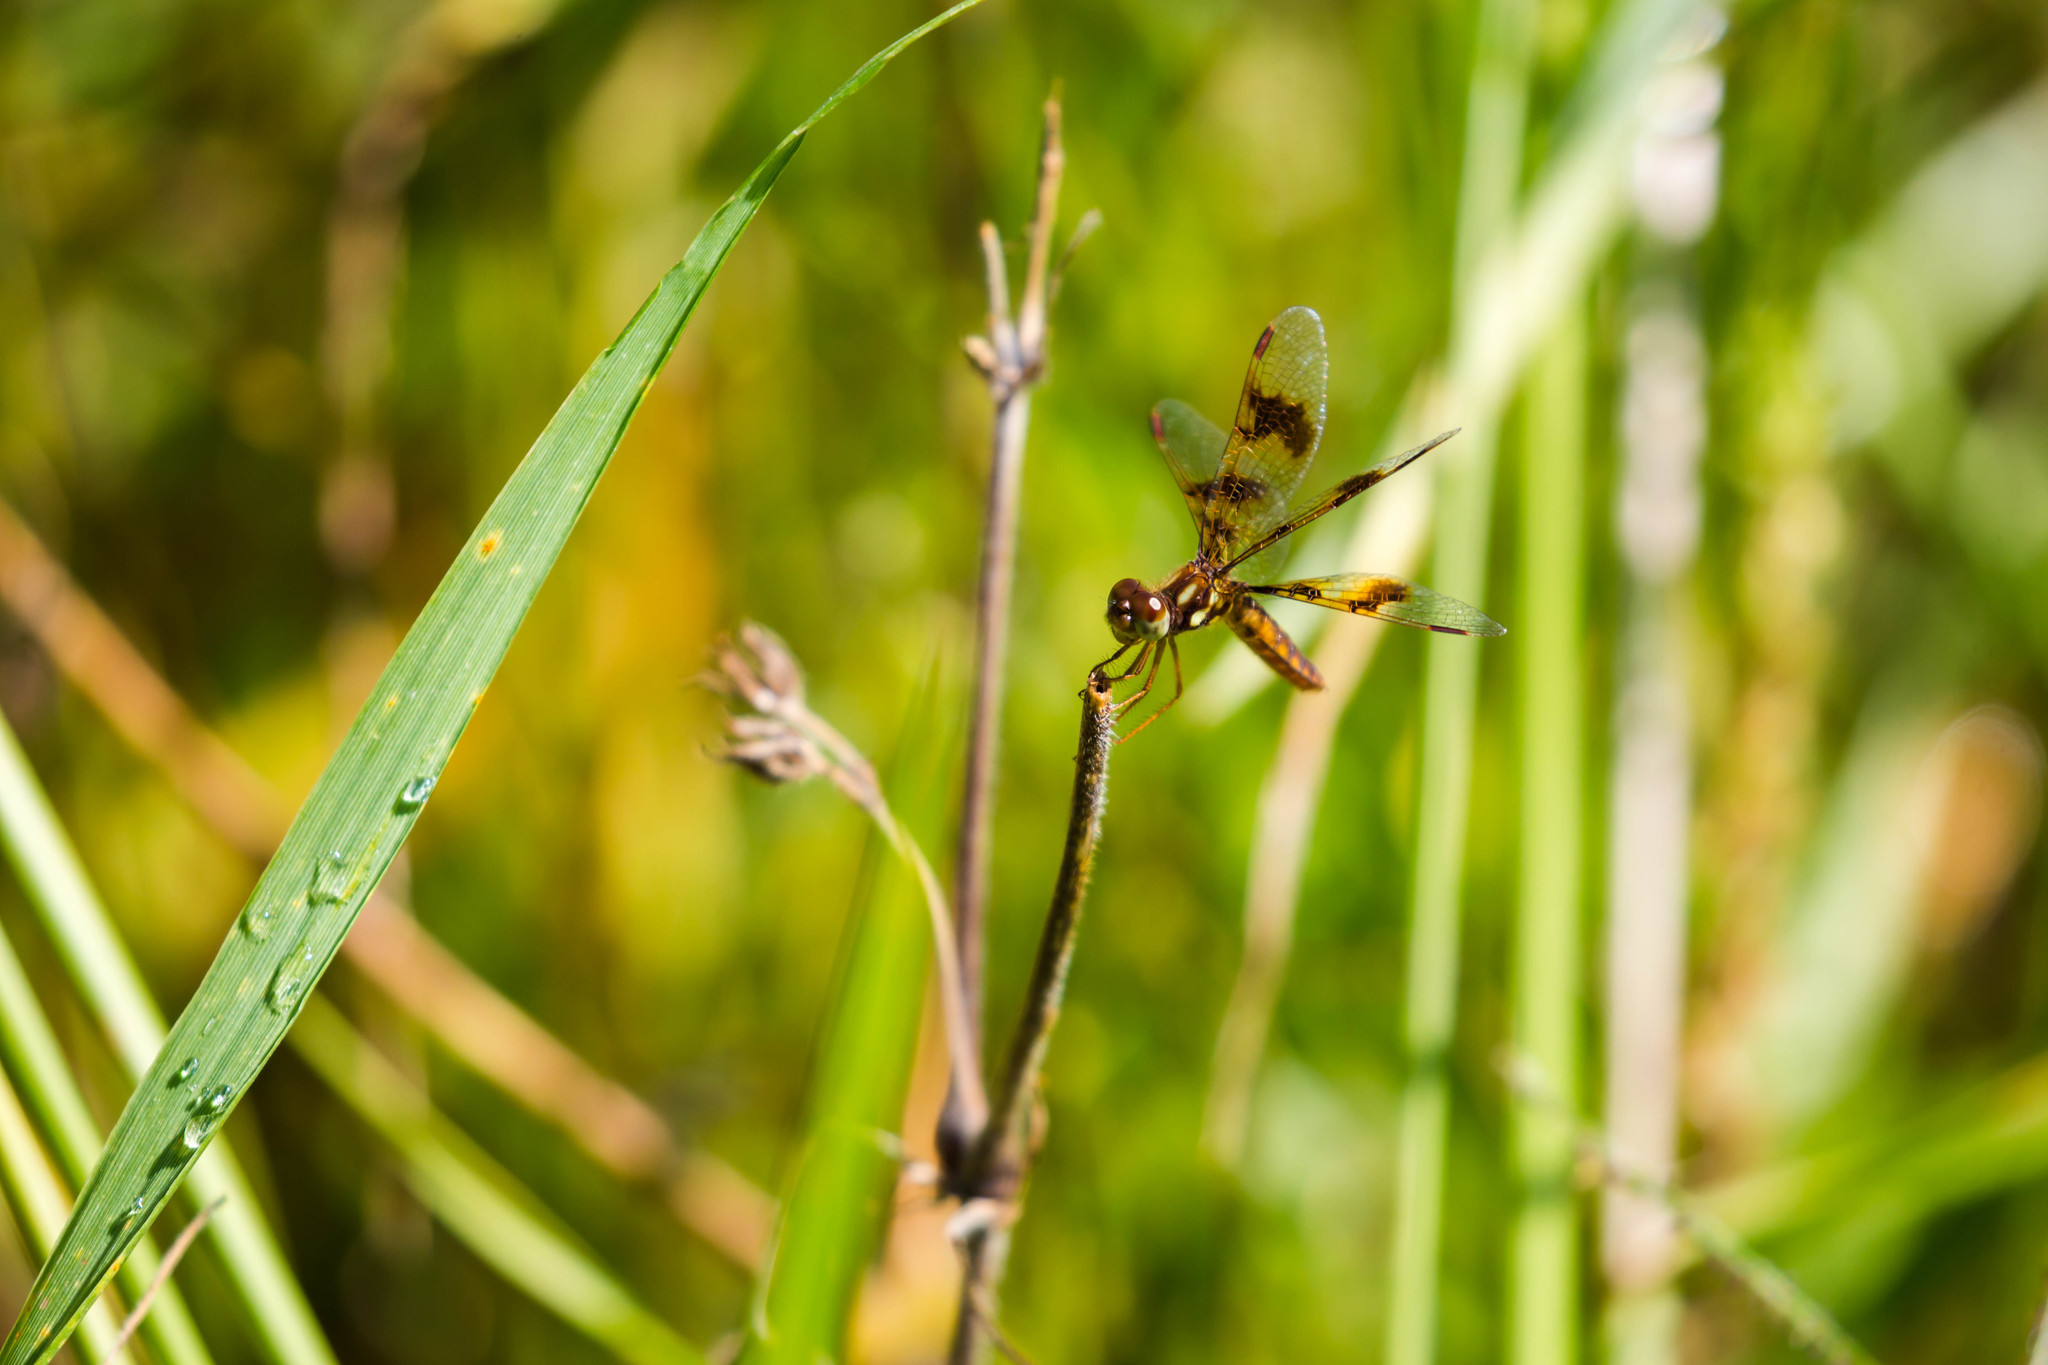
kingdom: Animalia
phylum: Arthropoda
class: Insecta
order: Odonata
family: Libellulidae
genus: Perithemis
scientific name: Perithemis tenera
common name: Eastern amberwing
